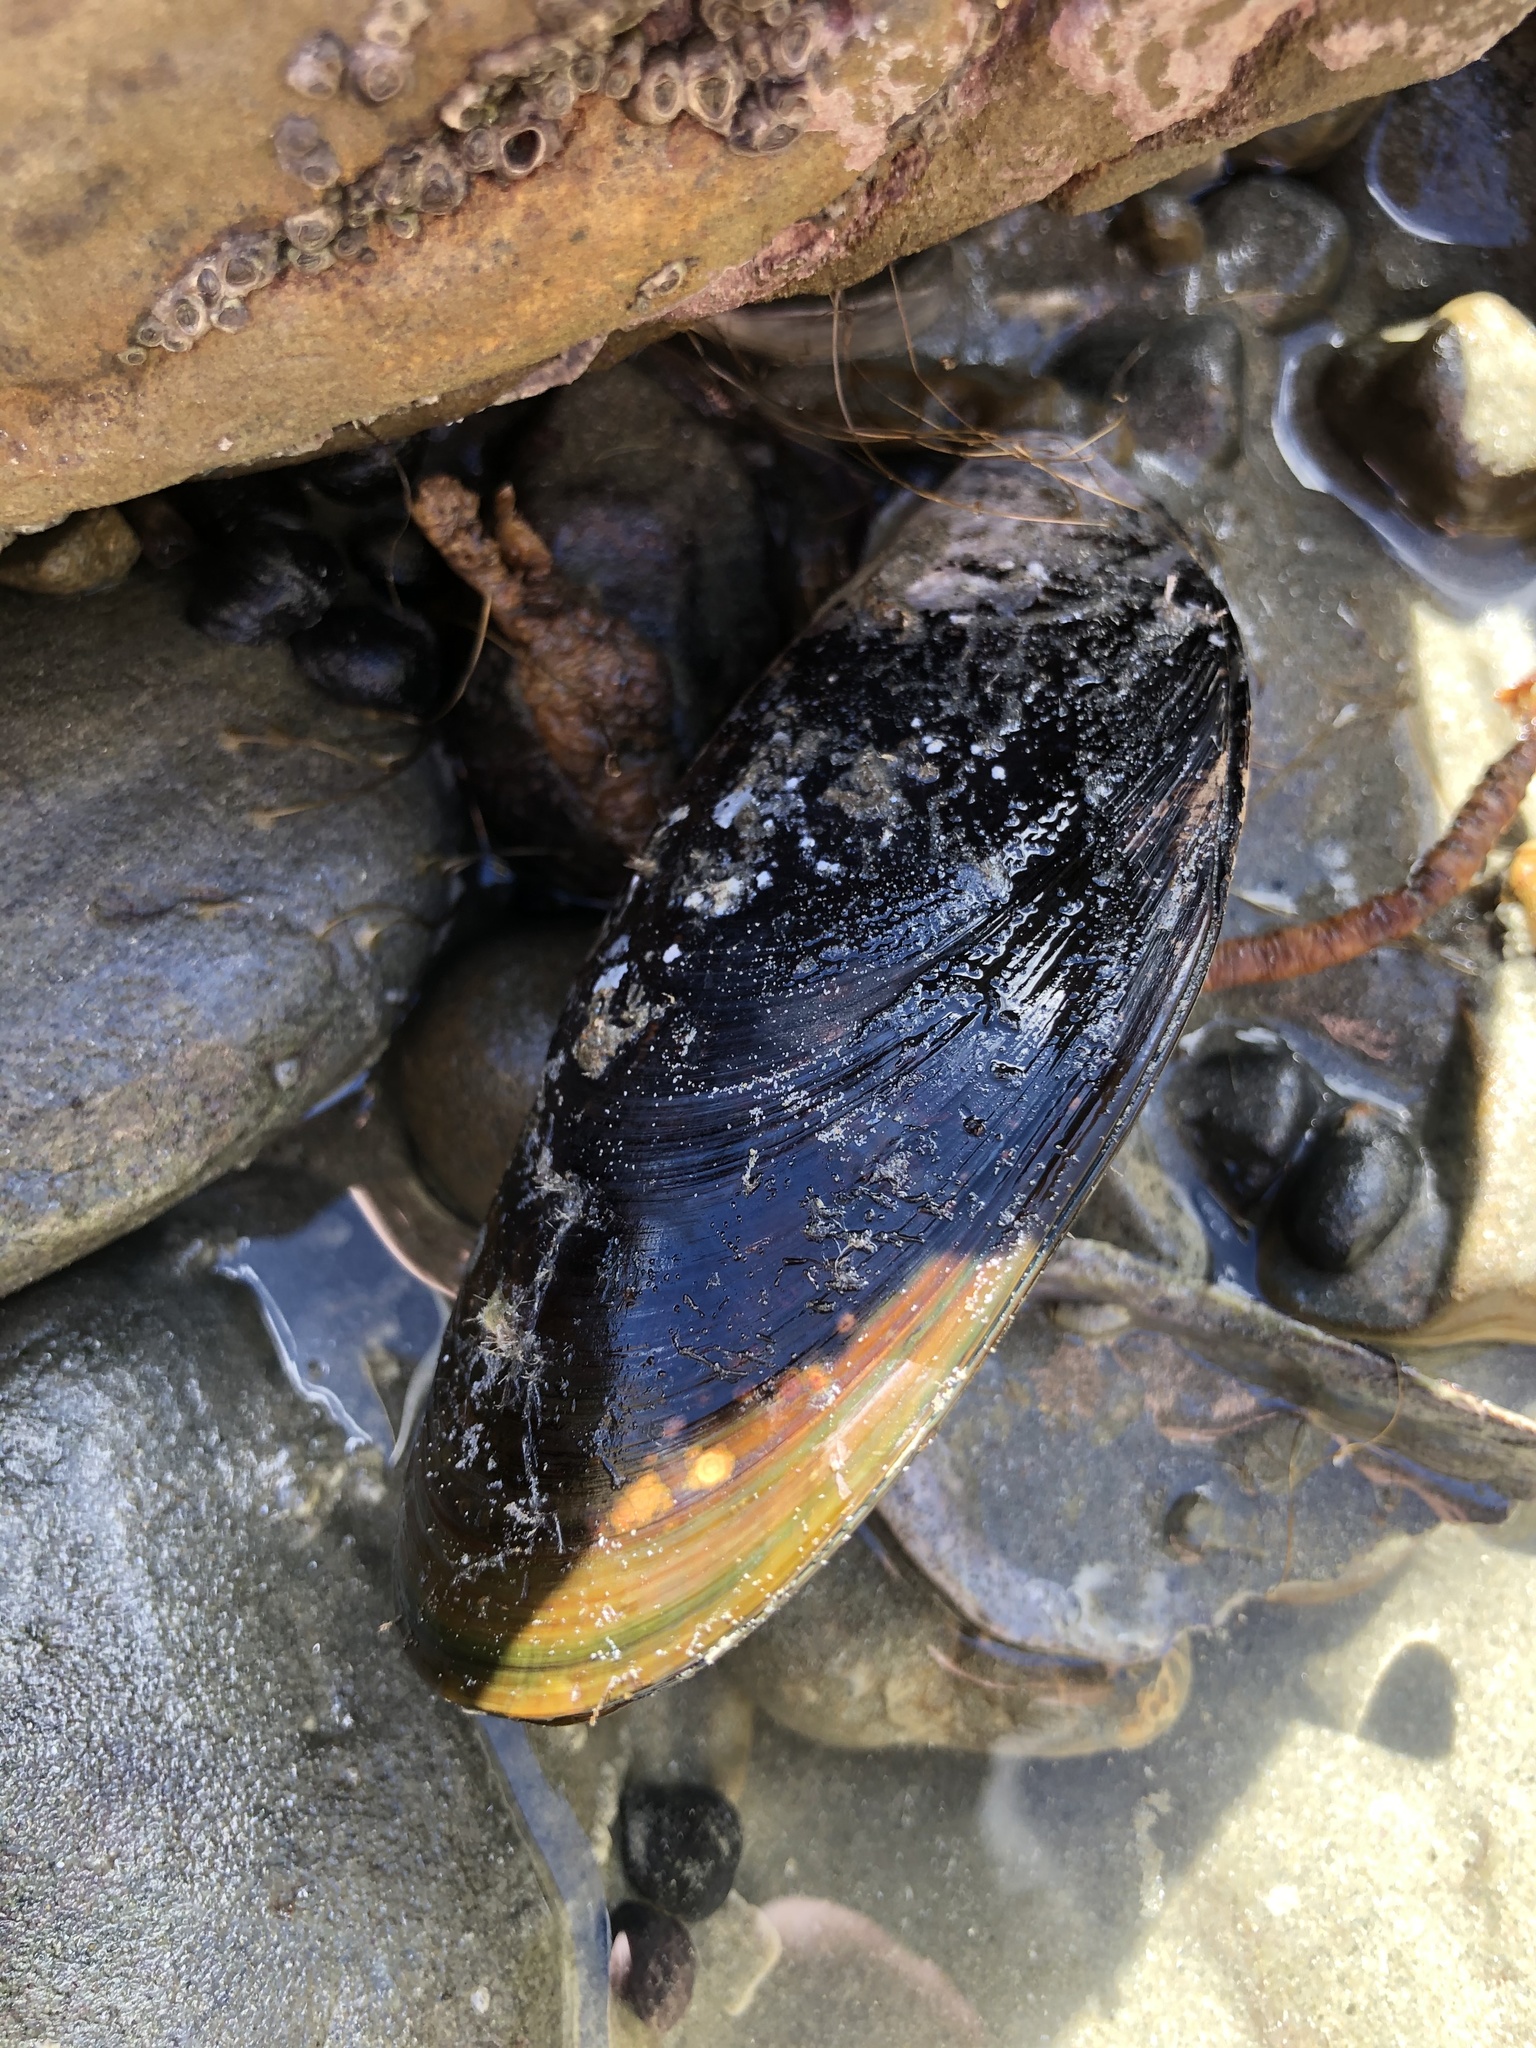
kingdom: Animalia
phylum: Mollusca
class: Bivalvia
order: Mytilida
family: Mytilidae
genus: Perna
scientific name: Perna canaliculus
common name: New zealand greenshelltm
